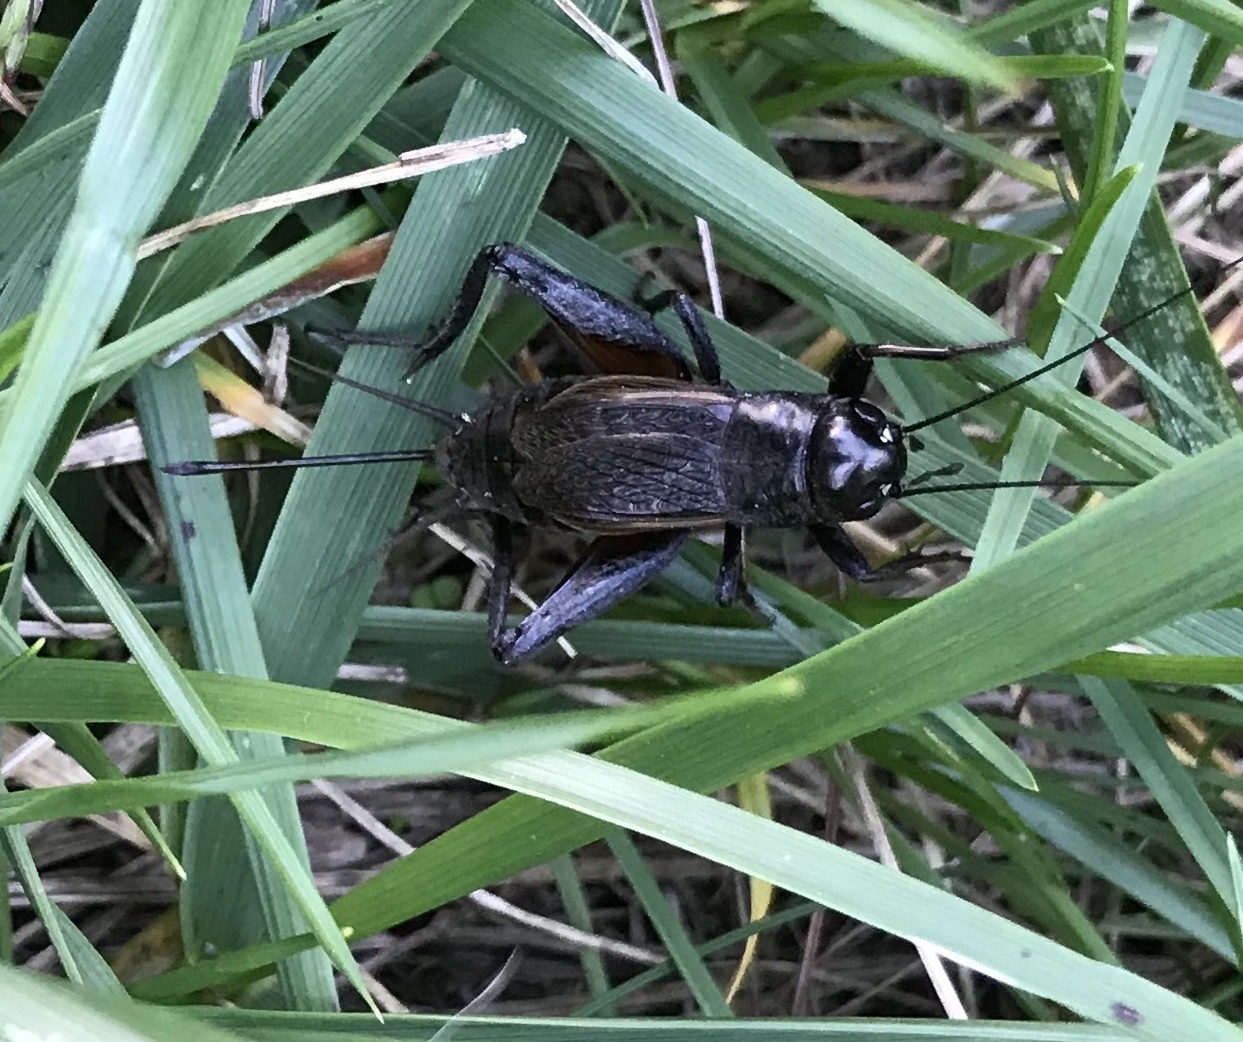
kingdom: Animalia
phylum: Arthropoda
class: Insecta
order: Orthoptera
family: Gryllidae
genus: Gryllus
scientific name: Gryllus pennsylvanicus
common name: Fall field cricket
